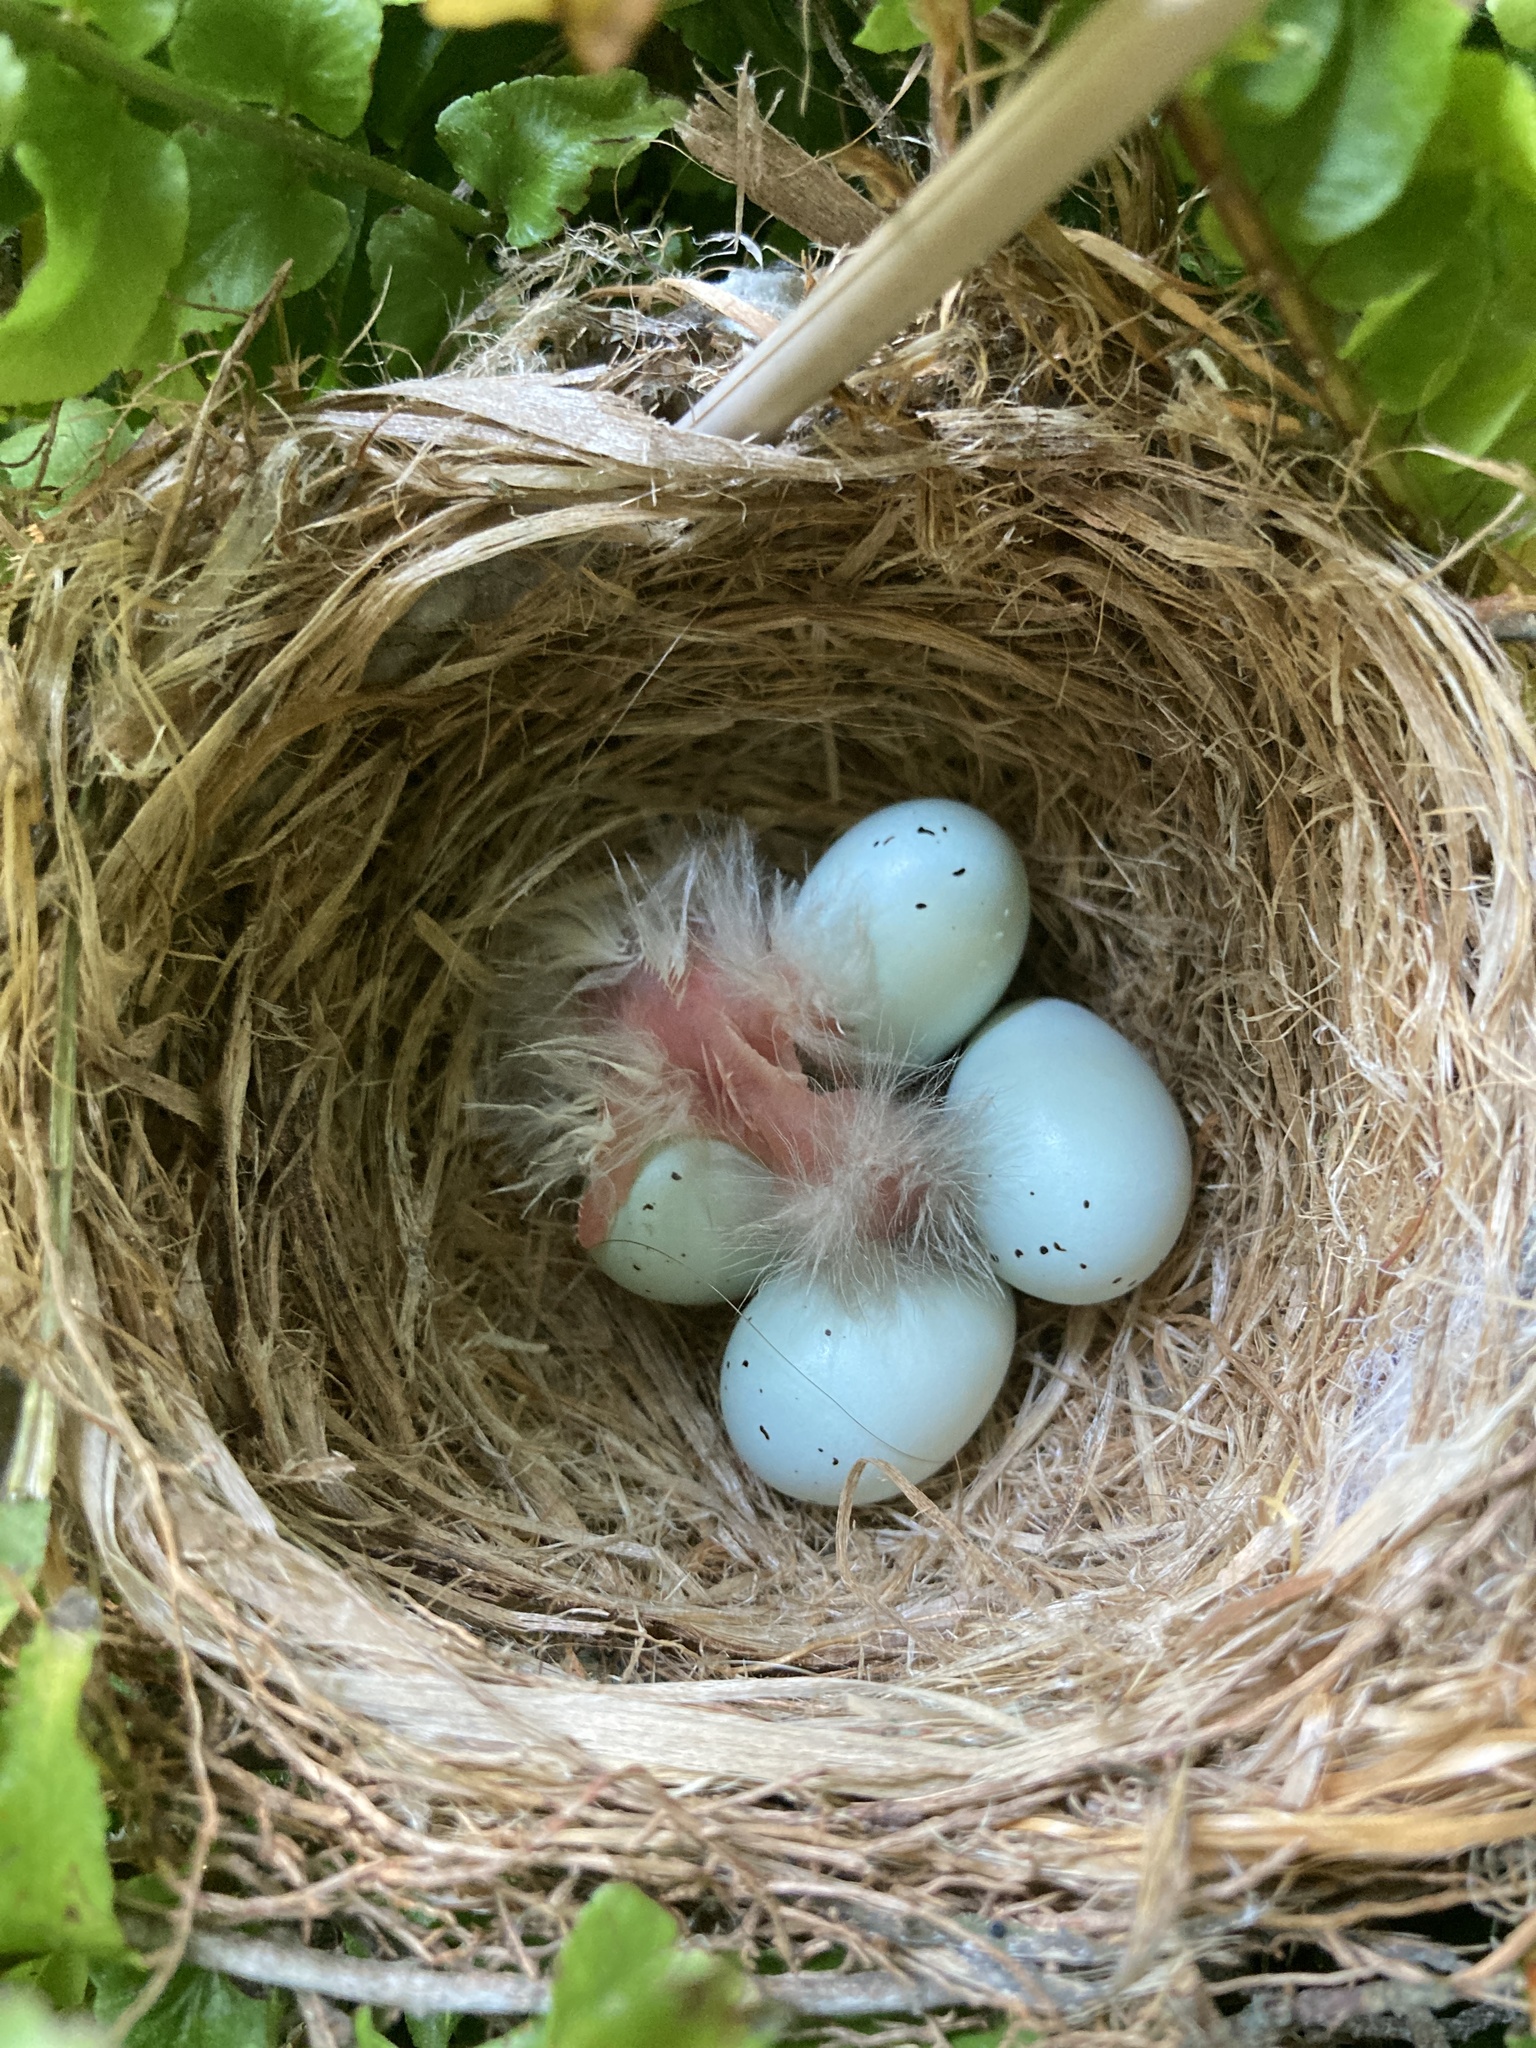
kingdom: Animalia
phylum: Chordata
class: Aves
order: Passeriformes
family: Fringillidae
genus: Haemorhous
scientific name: Haemorhous mexicanus
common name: House finch
